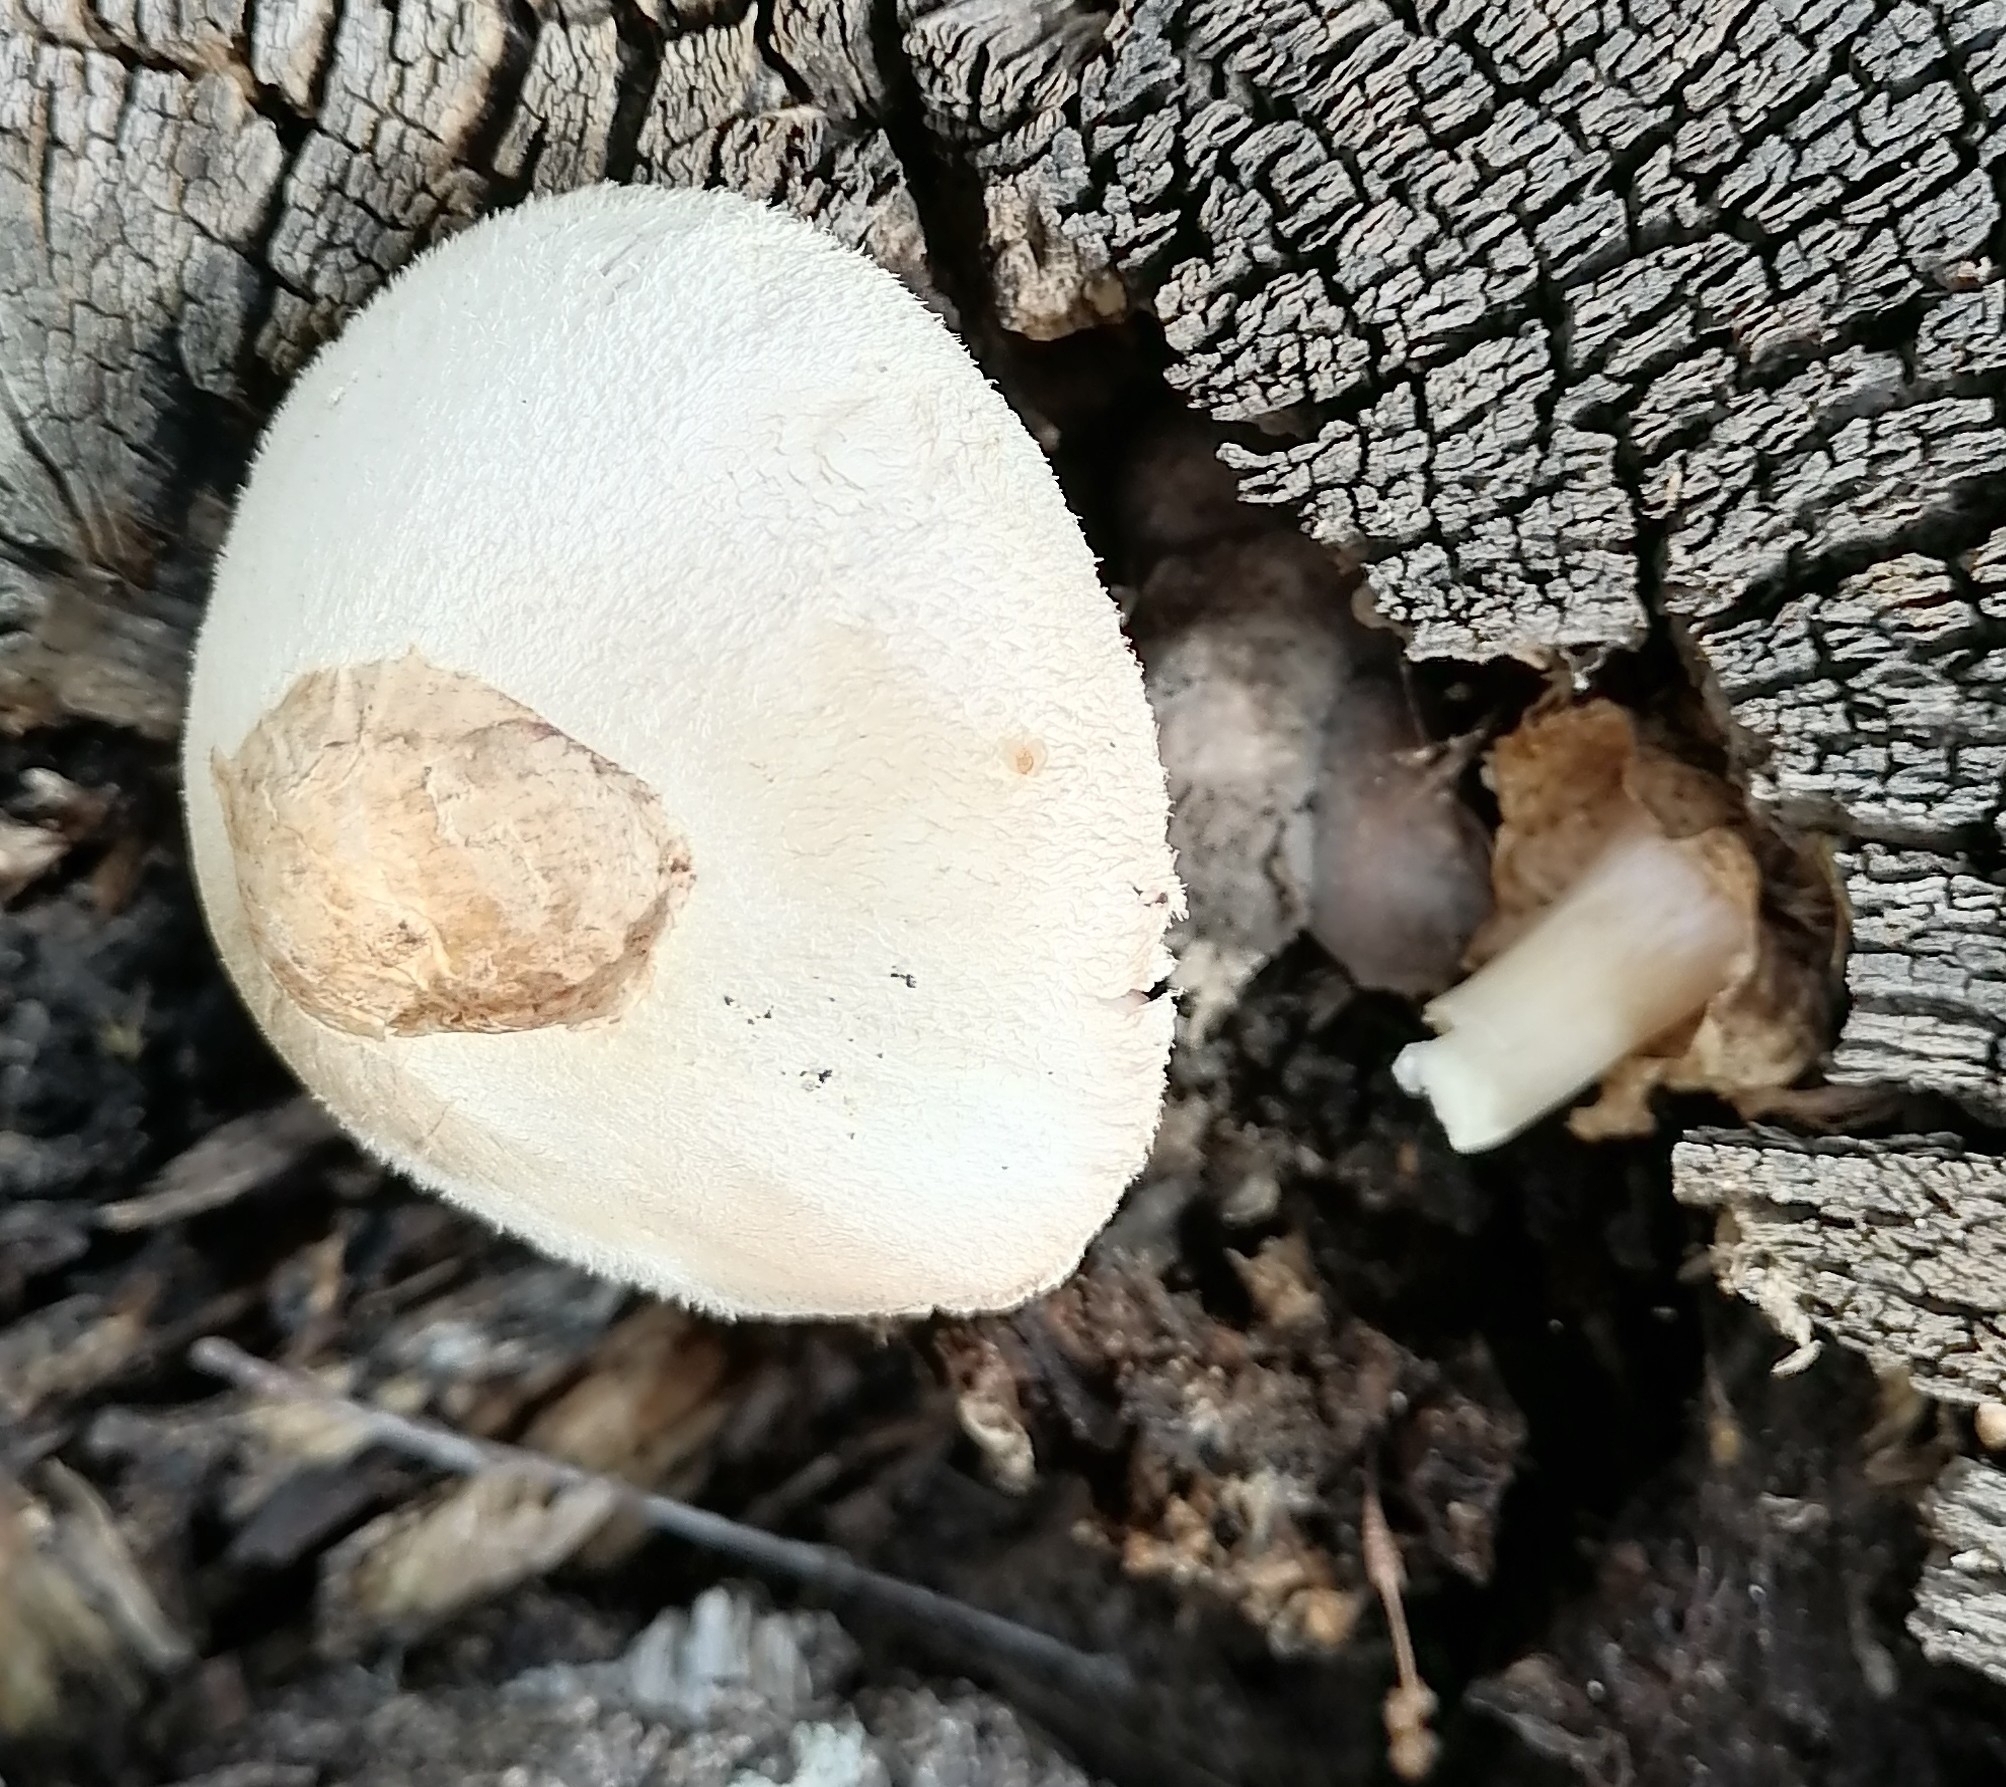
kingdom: Fungi
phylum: Basidiomycota
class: Agaricomycetes
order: Agaricales
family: Pluteaceae
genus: Volvariella
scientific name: Volvariella bombycina
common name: Silky rosegill
